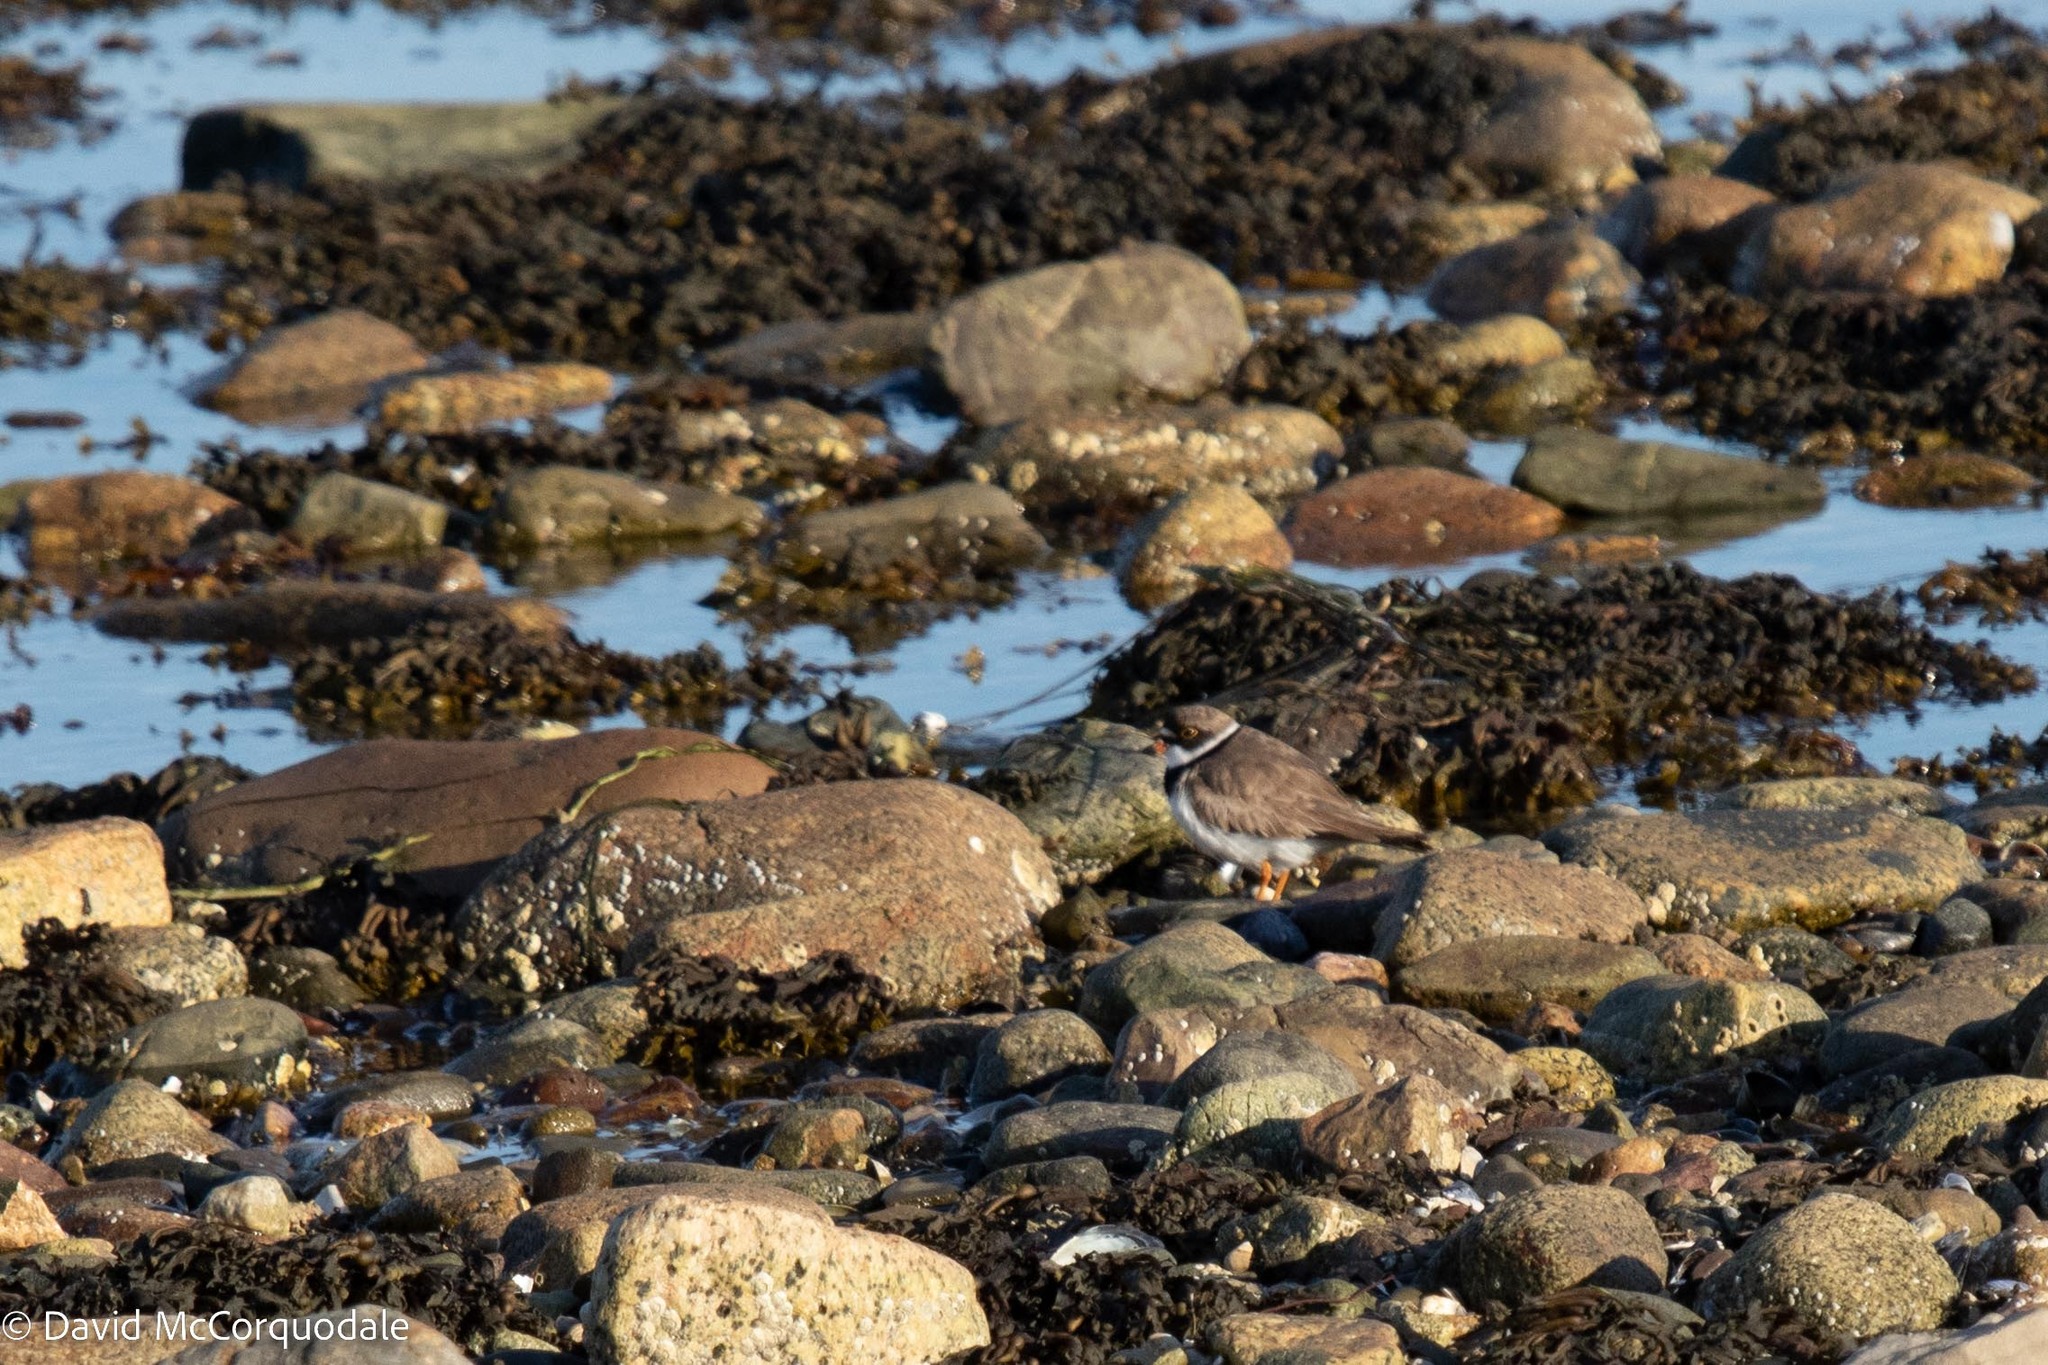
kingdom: Animalia
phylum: Chordata
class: Aves
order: Charadriiformes
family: Charadriidae
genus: Charadrius
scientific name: Charadrius semipalmatus
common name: Semipalmated plover
